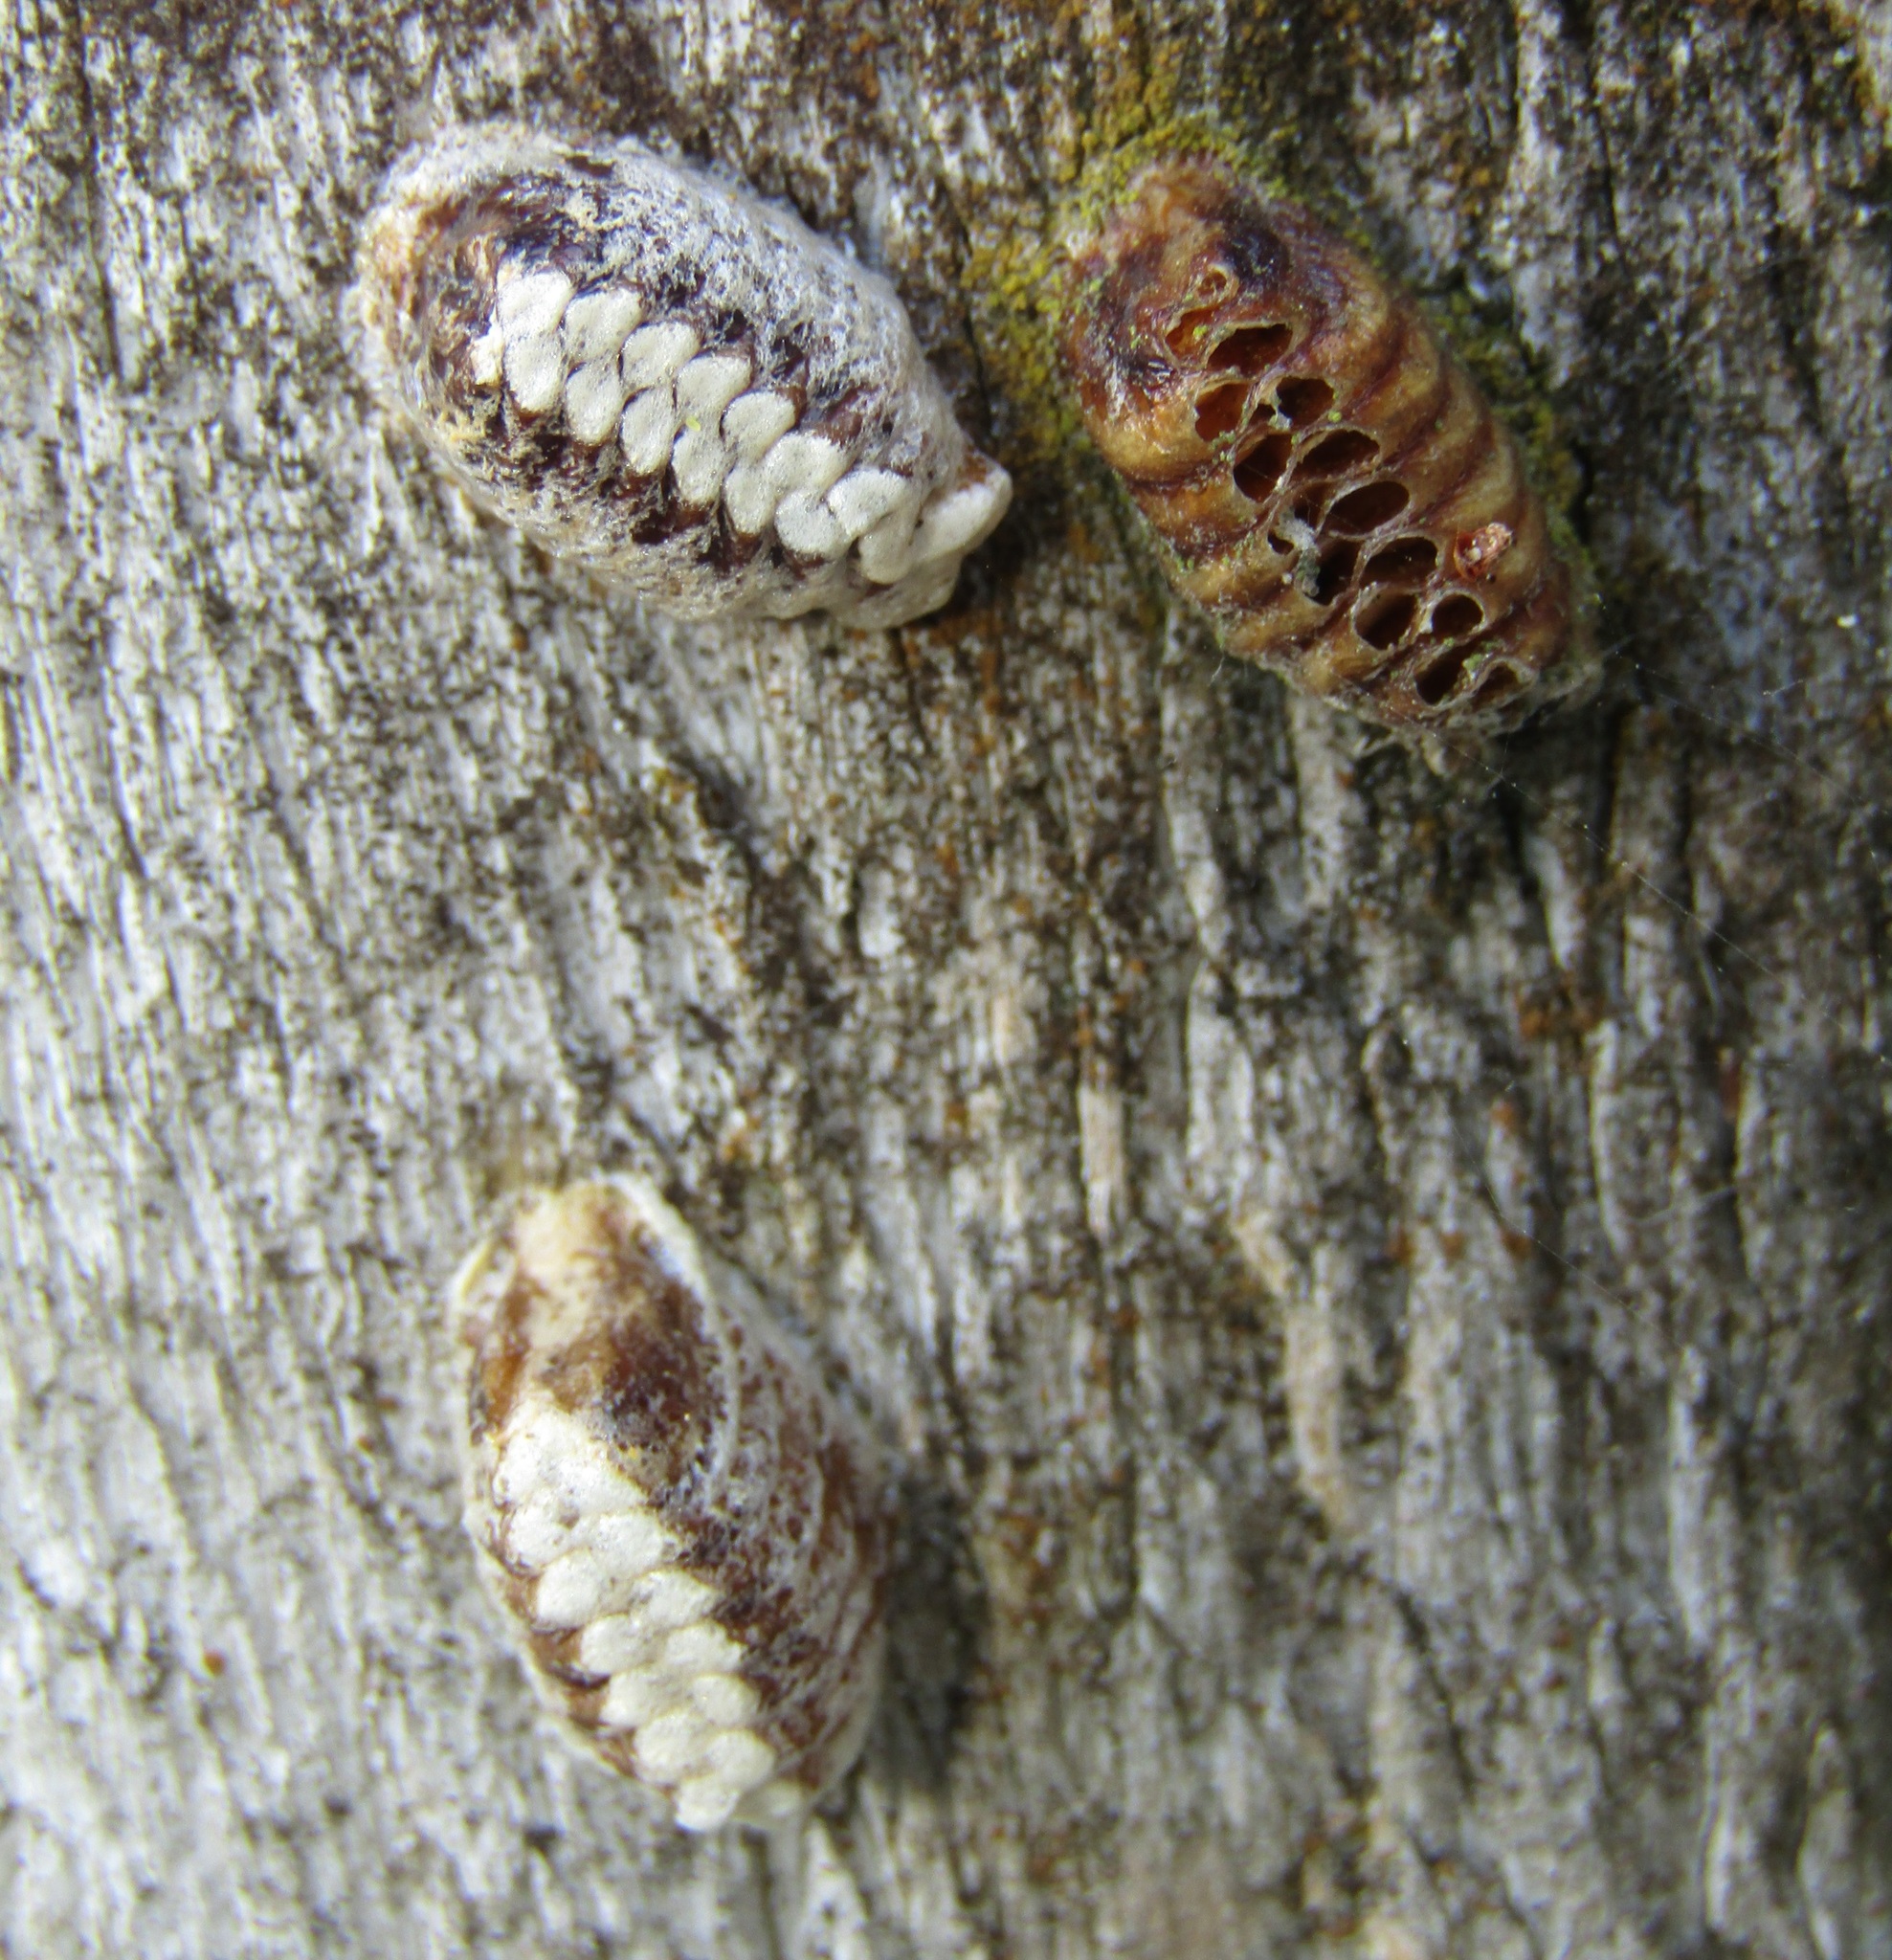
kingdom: Animalia
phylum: Arthropoda
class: Insecta
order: Mantodea
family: Mantidae
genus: Orthodera
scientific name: Orthodera novaezealandiae
